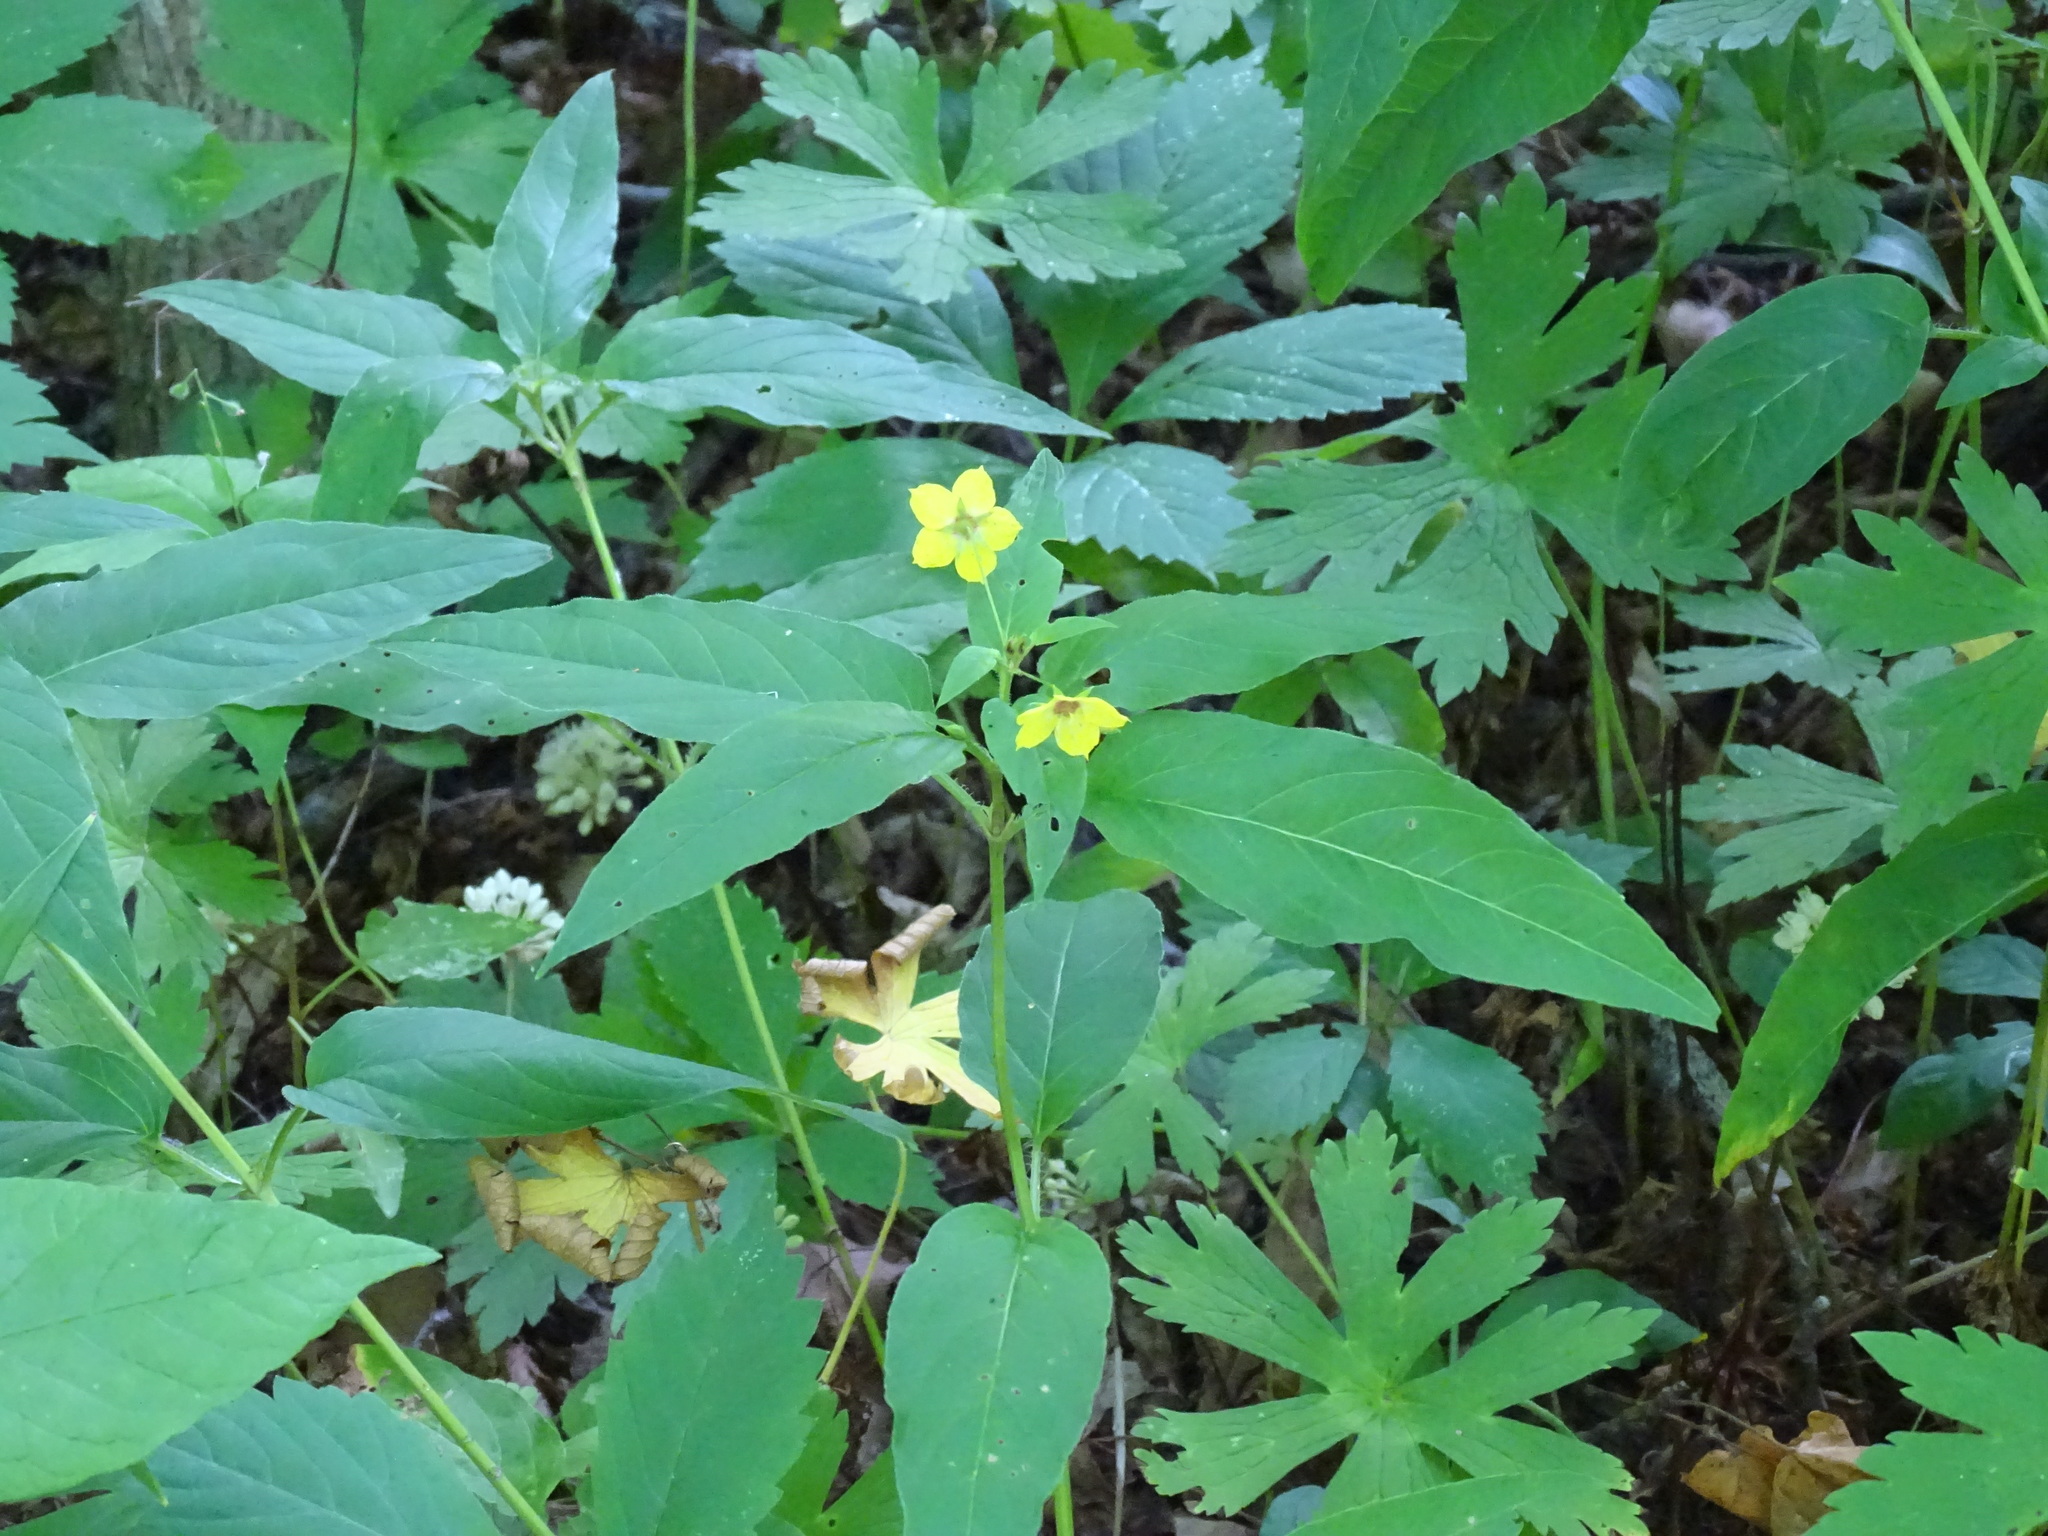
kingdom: Plantae
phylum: Tracheophyta
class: Magnoliopsida
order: Ericales
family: Primulaceae
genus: Lysimachia
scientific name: Lysimachia ciliata
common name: Fringed loosestrife
